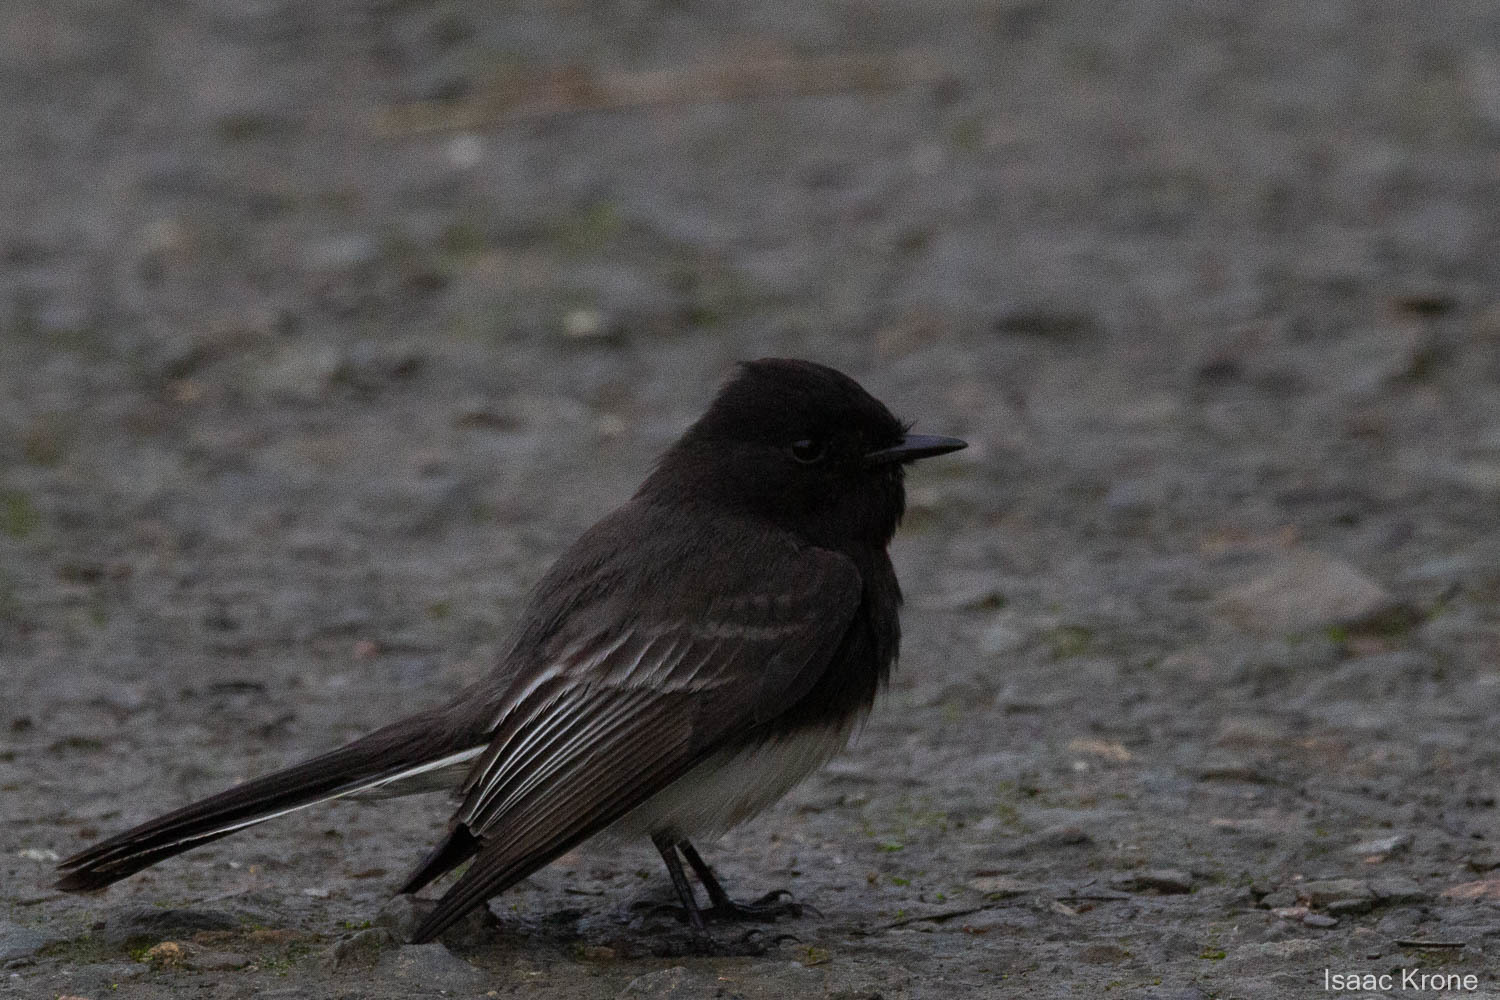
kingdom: Animalia
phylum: Chordata
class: Aves
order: Passeriformes
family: Tyrannidae
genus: Sayornis
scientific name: Sayornis nigricans
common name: Black phoebe
